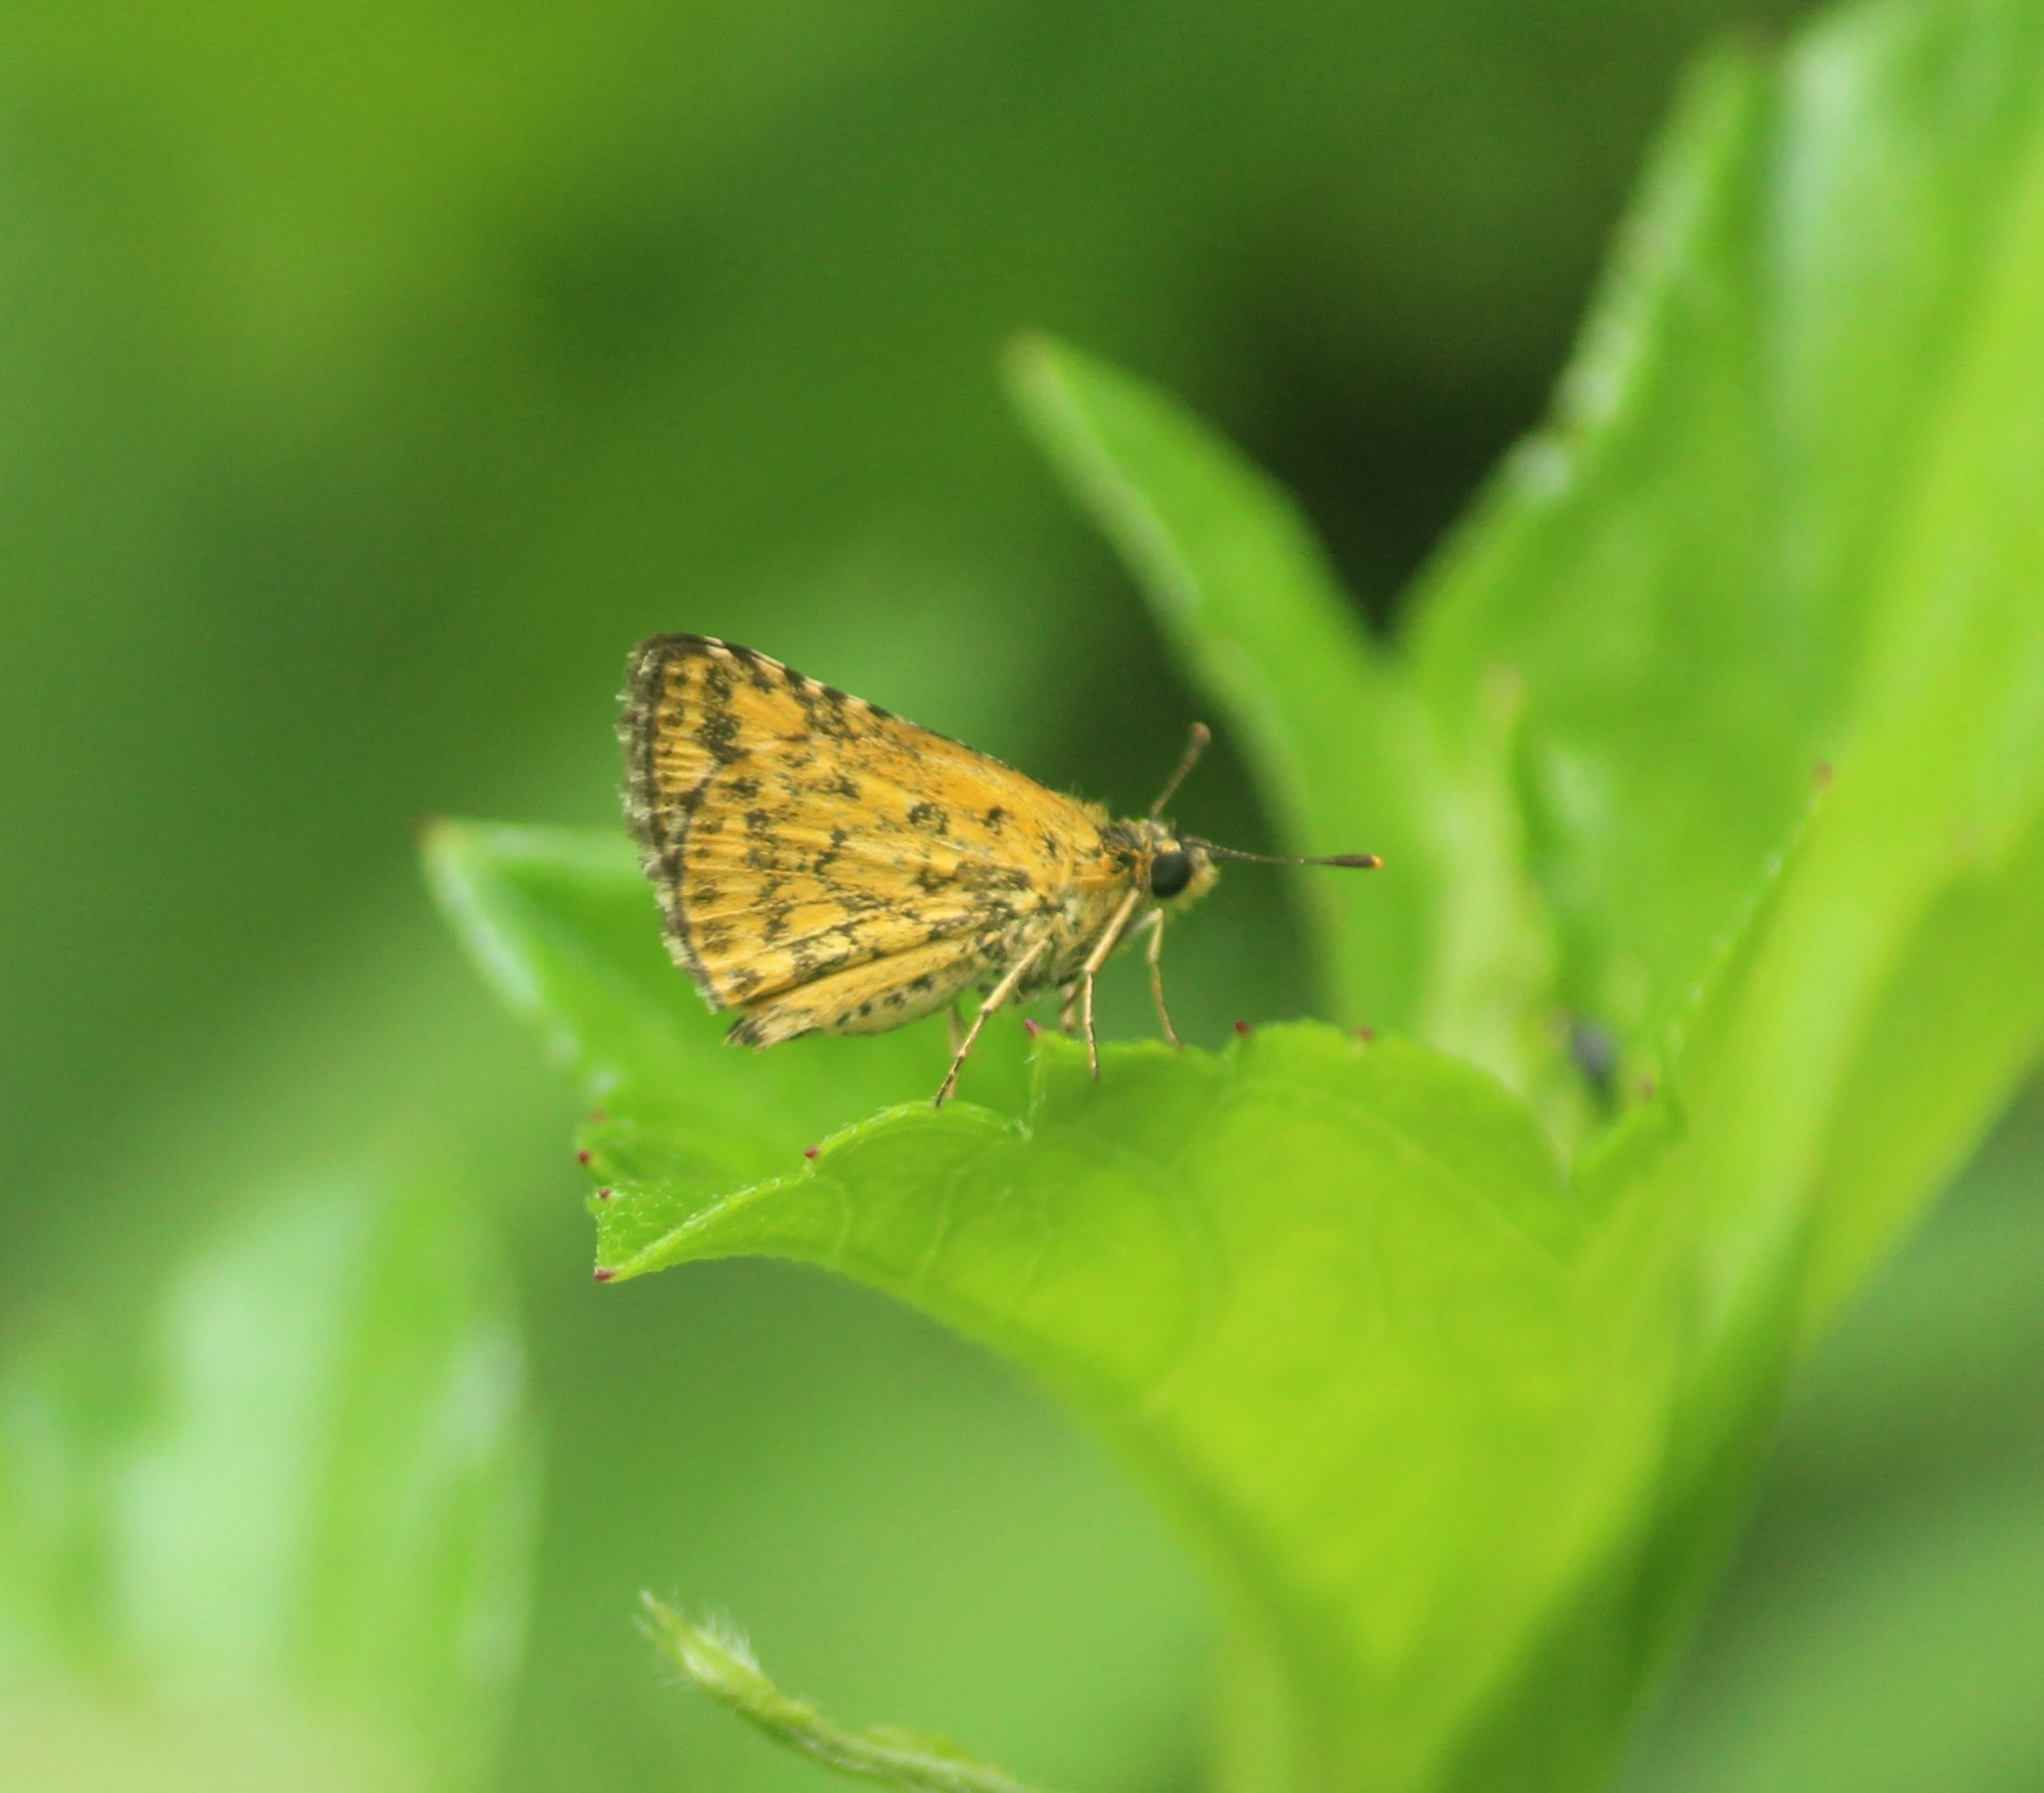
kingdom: Animalia
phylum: Arthropoda
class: Insecta
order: Lepidoptera
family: Hesperiidae
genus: Ampittia
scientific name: Ampittia dioscorides
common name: Common bush hopper
